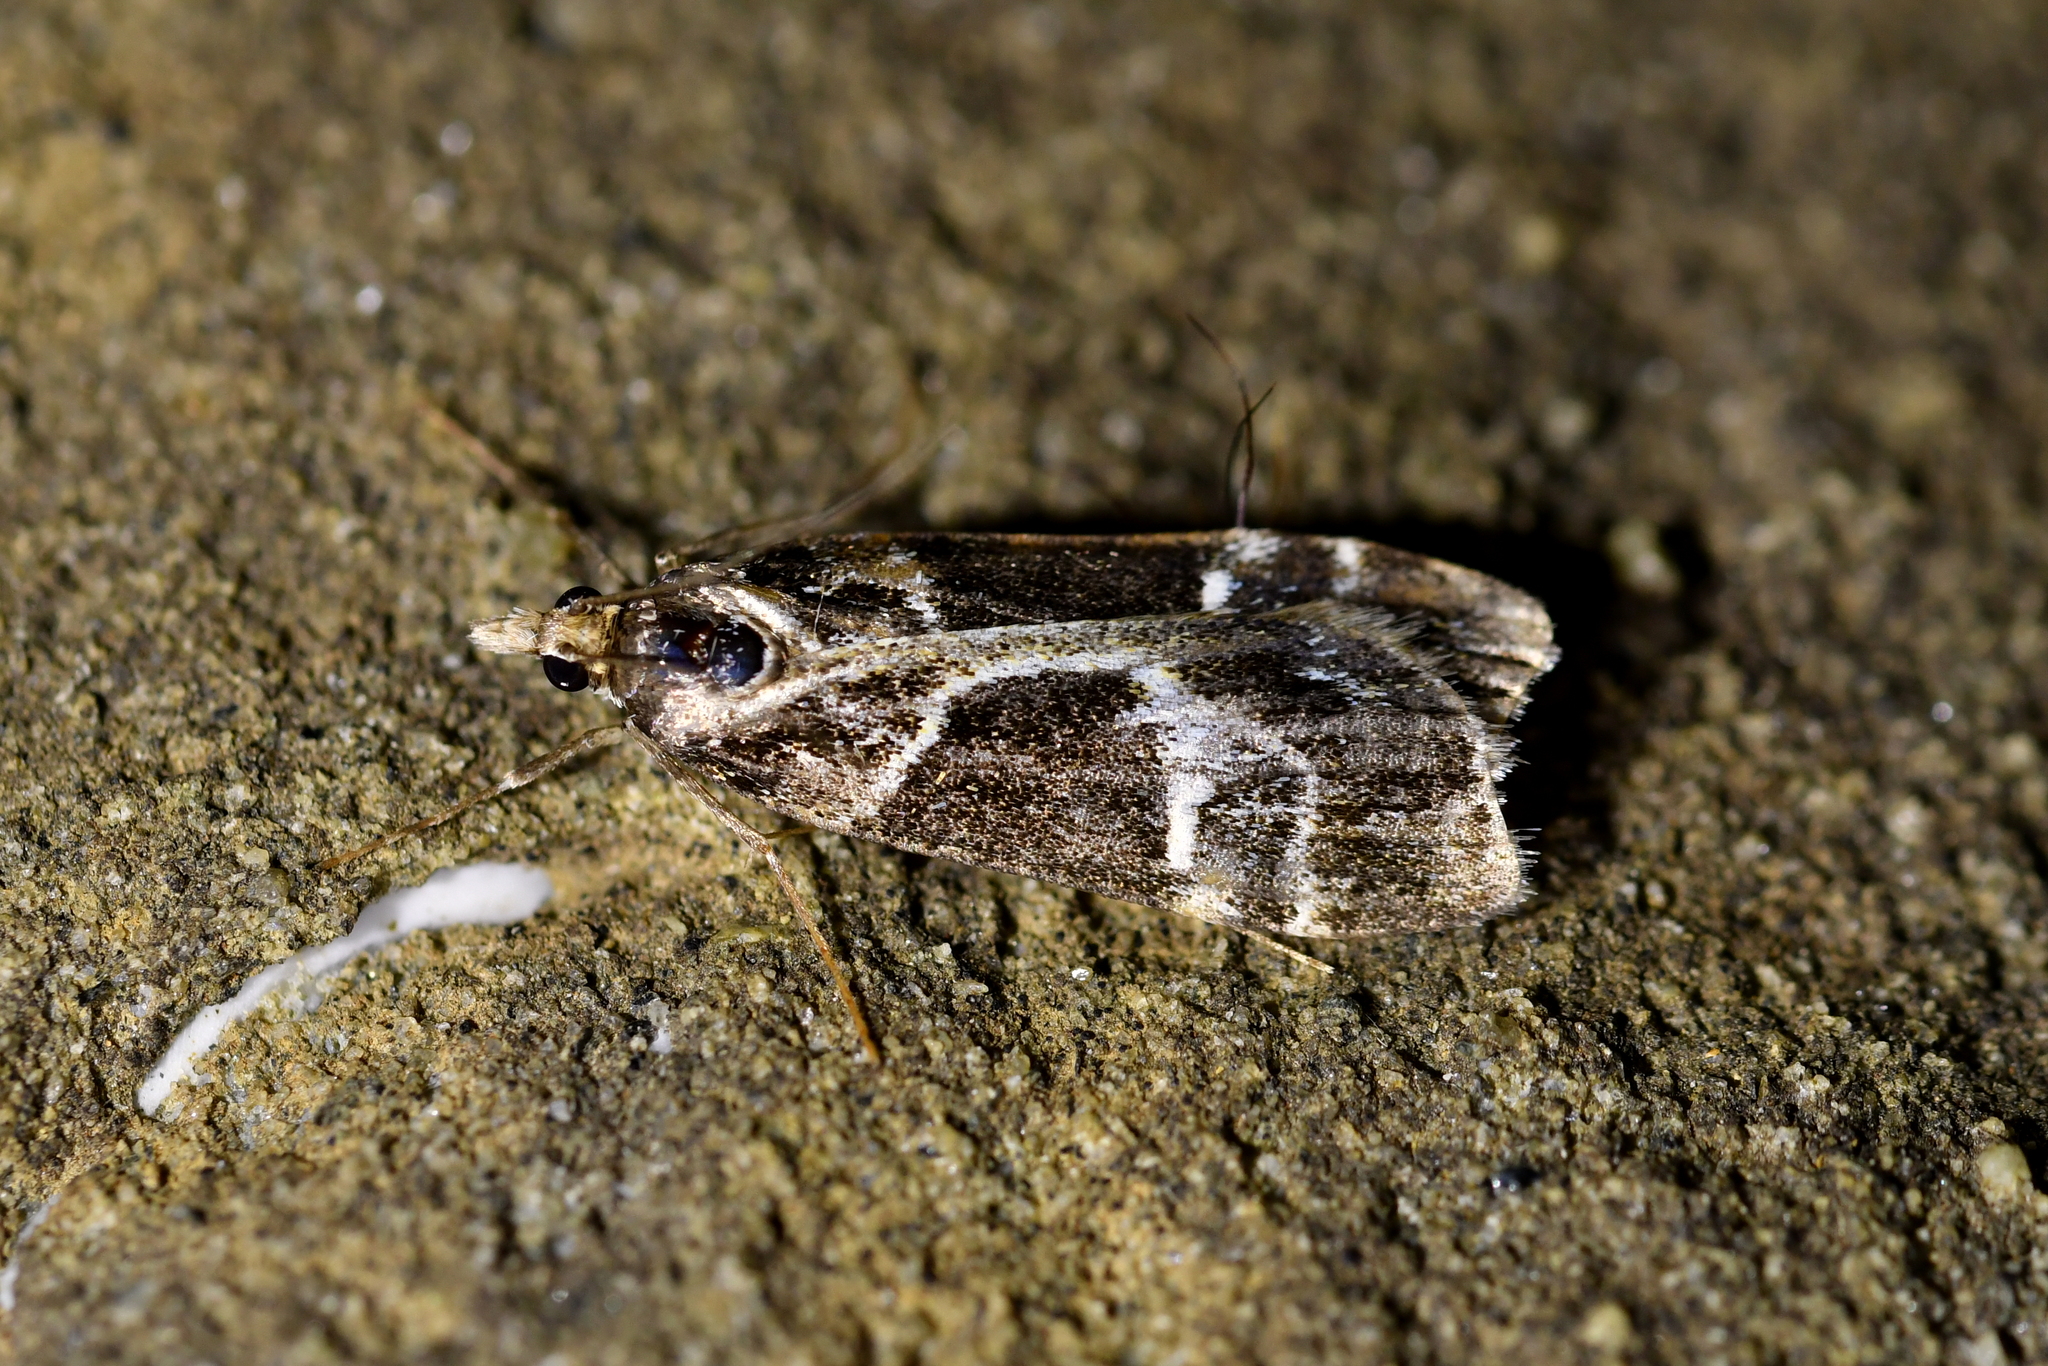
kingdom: Animalia
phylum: Arthropoda
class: Insecta
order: Lepidoptera
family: Crambidae
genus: Eudonia
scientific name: Eudonia melanaegis
